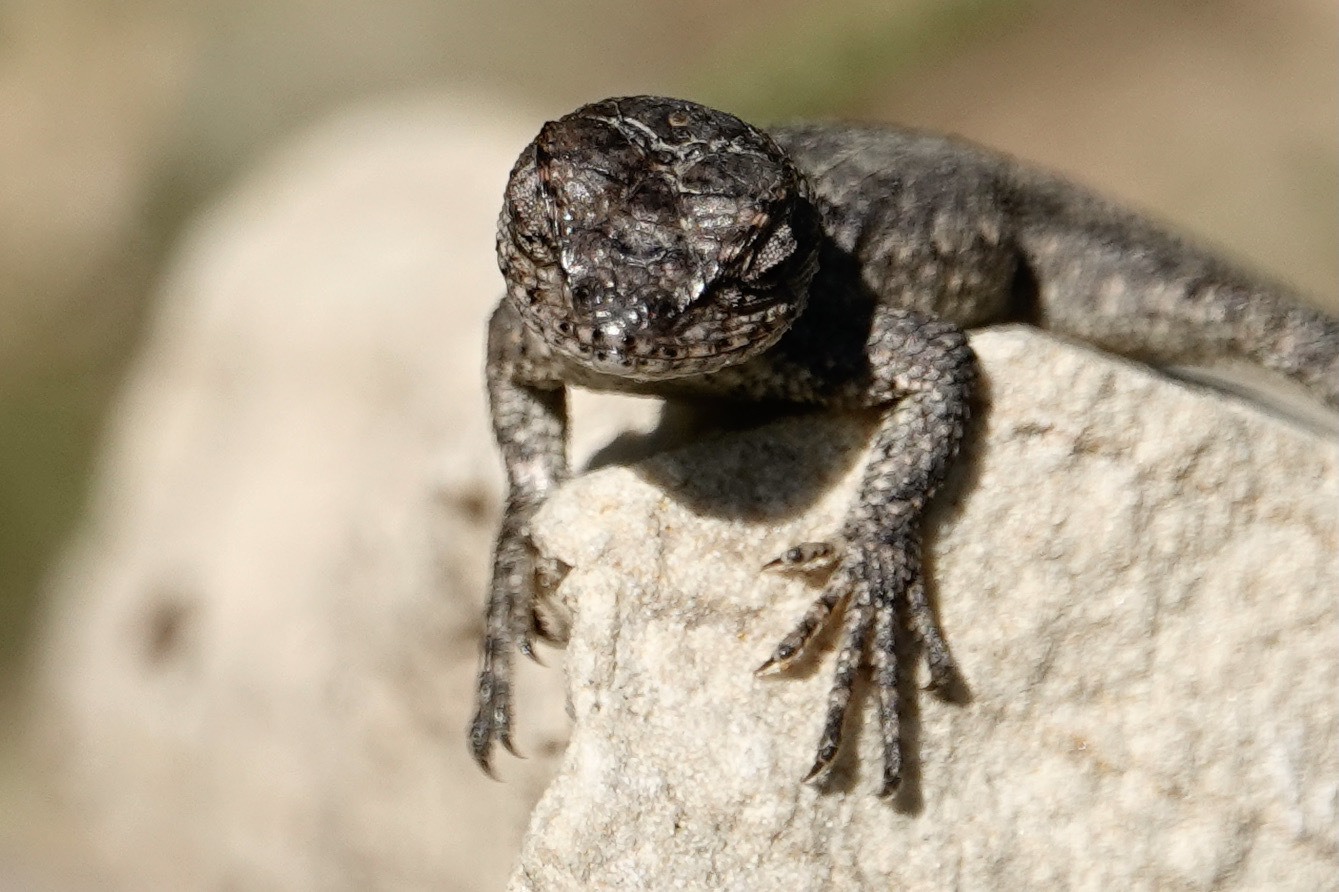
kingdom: Animalia
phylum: Chordata
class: Squamata
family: Phrynosomatidae
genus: Sceloporus
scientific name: Sceloporus undulatus
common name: Eastern fence lizard
